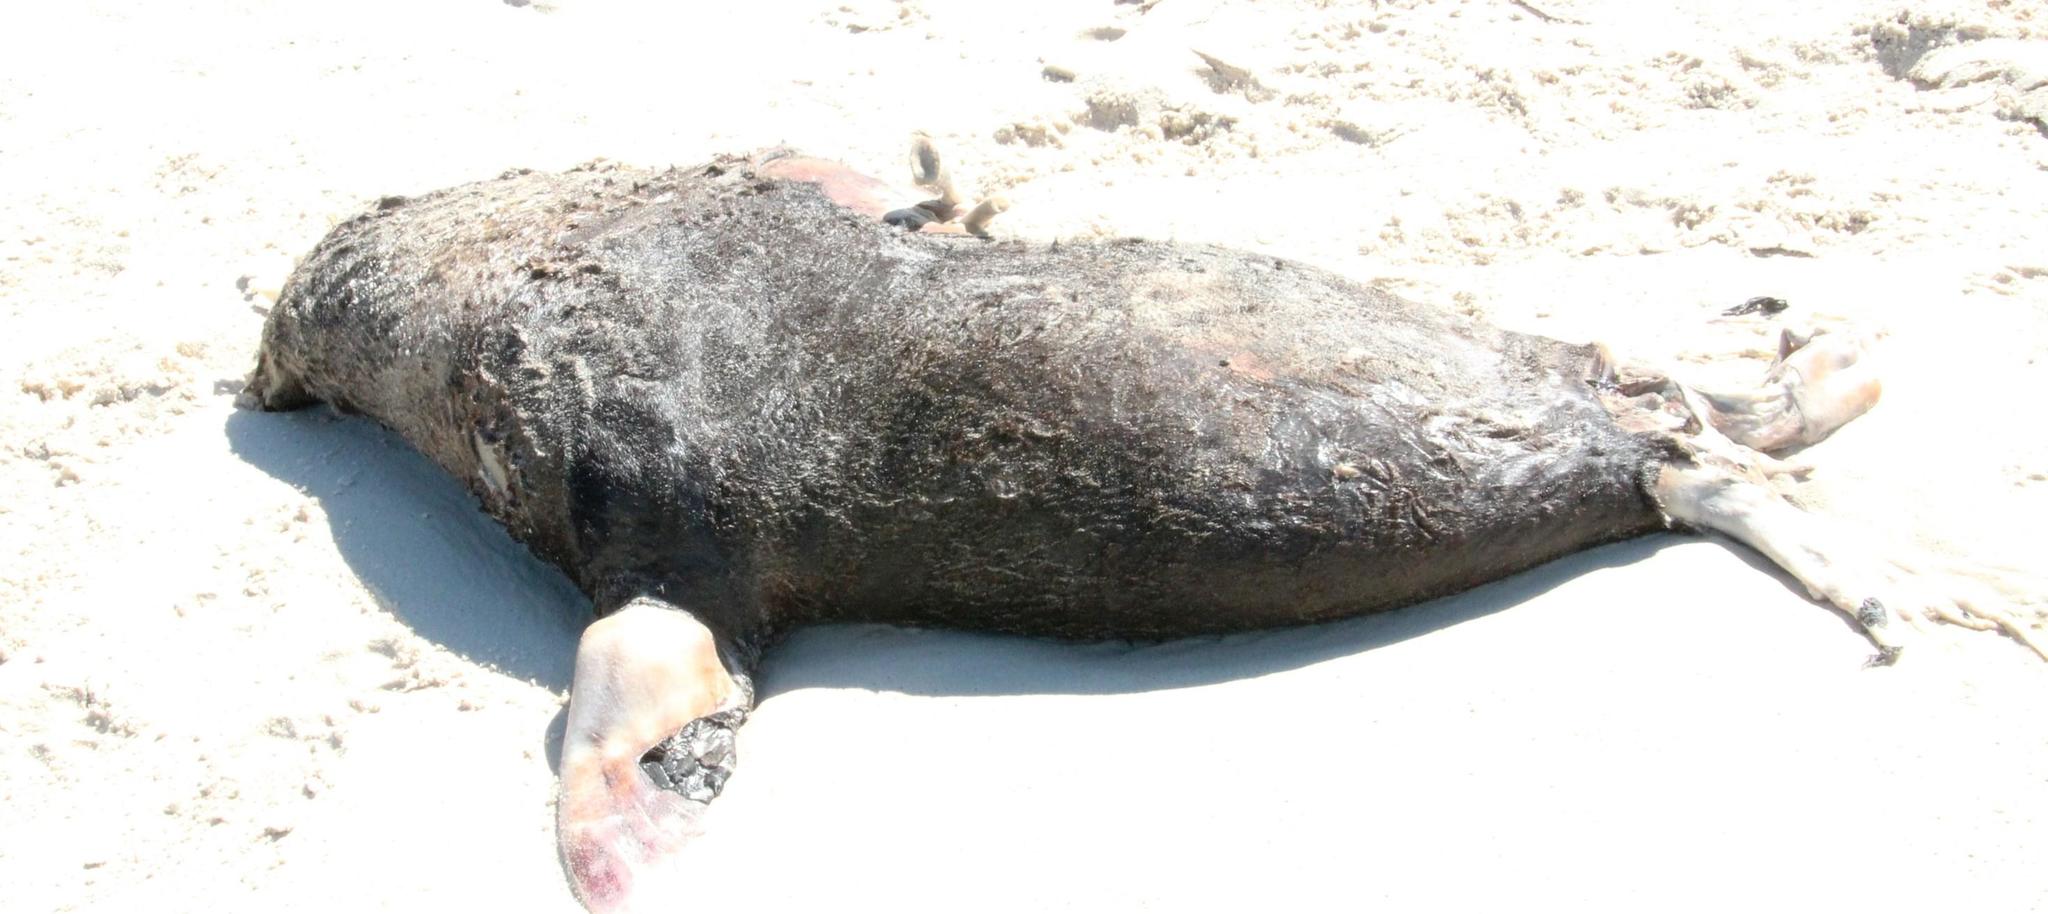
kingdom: Animalia
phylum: Chordata
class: Mammalia
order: Carnivora
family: Otariidae
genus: Arctocephalus
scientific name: Arctocephalus pusillus
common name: Brown fur seal
